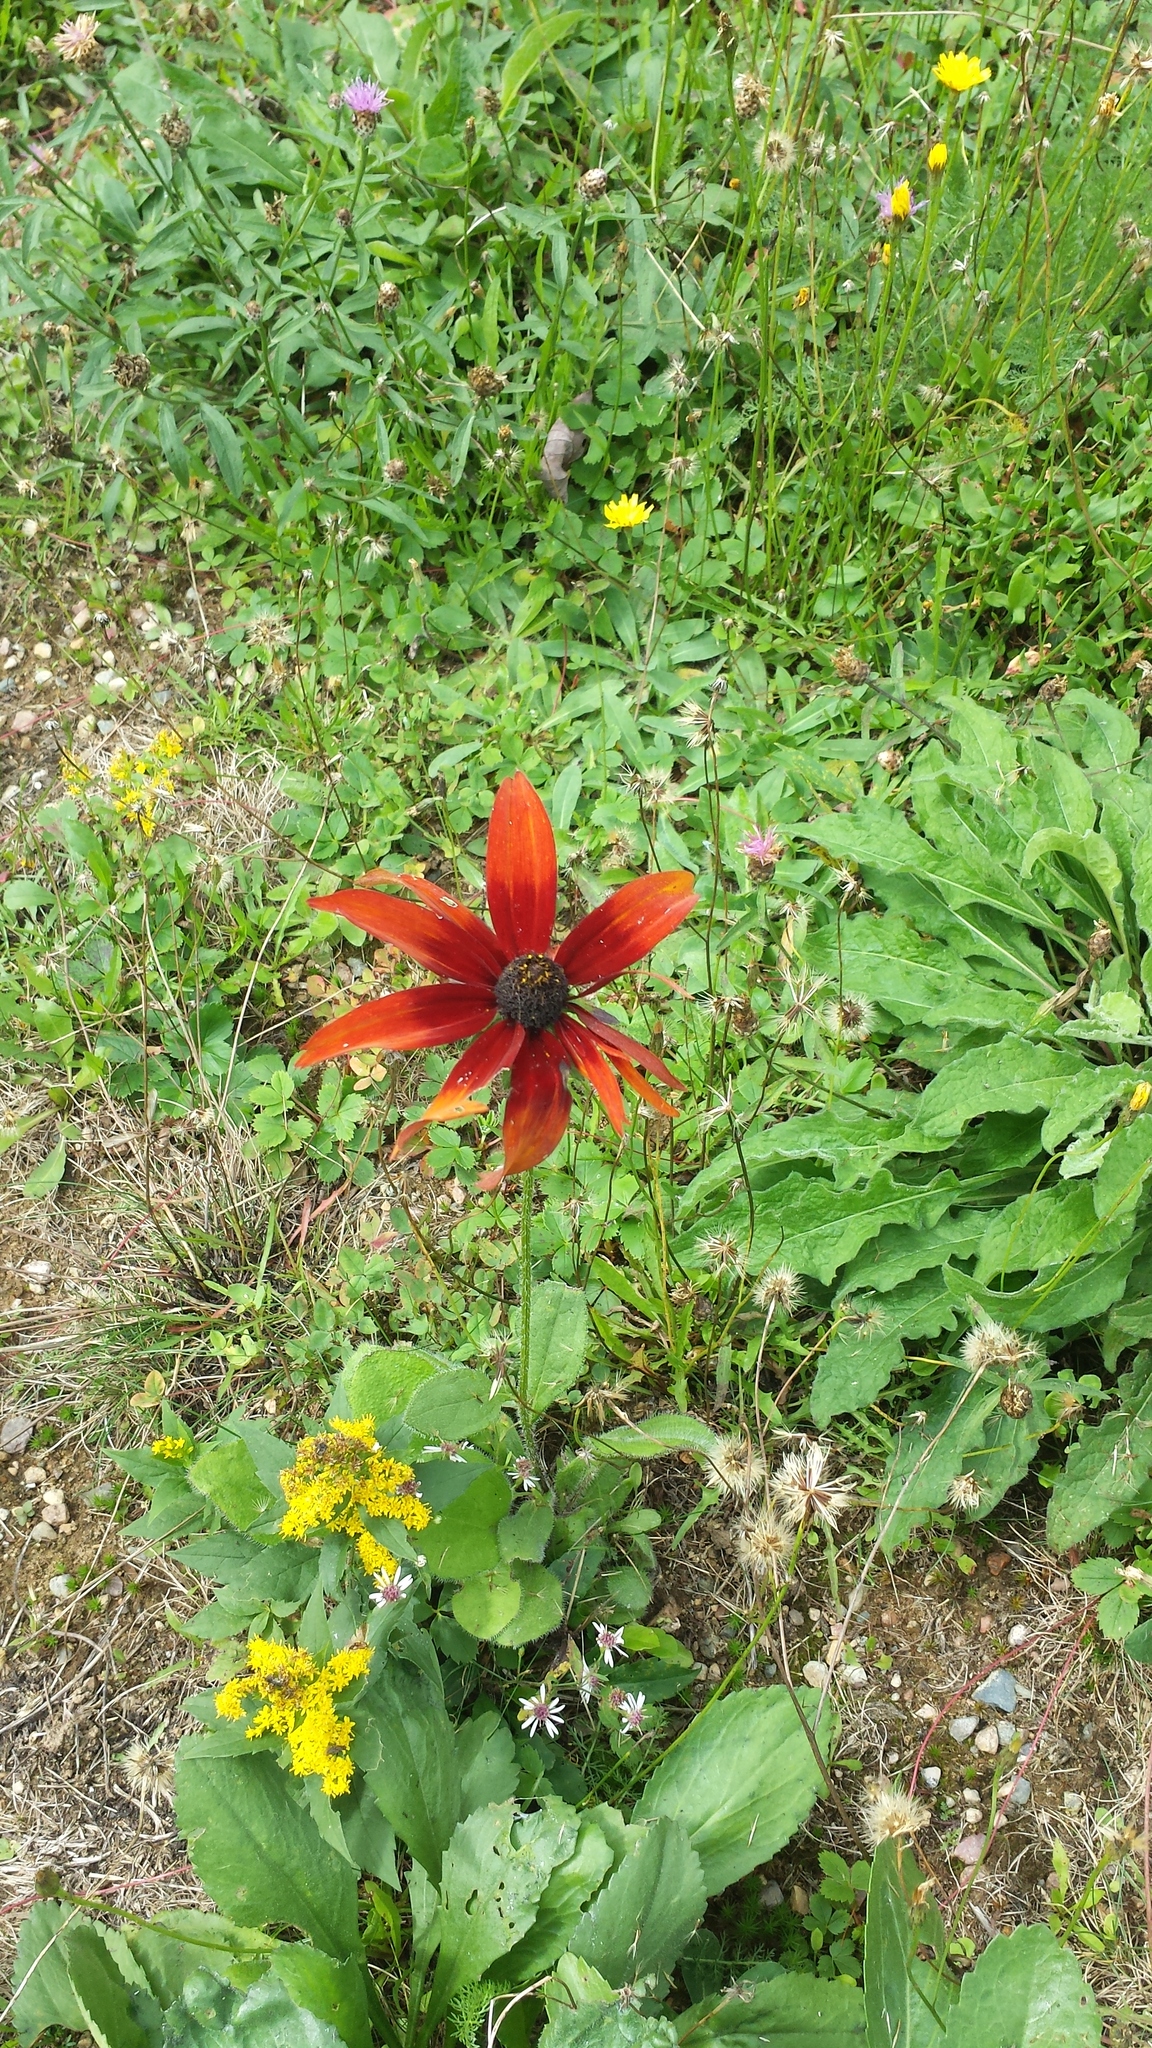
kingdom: Plantae
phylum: Tracheophyta
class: Magnoliopsida
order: Asterales
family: Asteraceae
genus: Rudbeckia
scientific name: Rudbeckia hirta
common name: Black-eyed-susan
